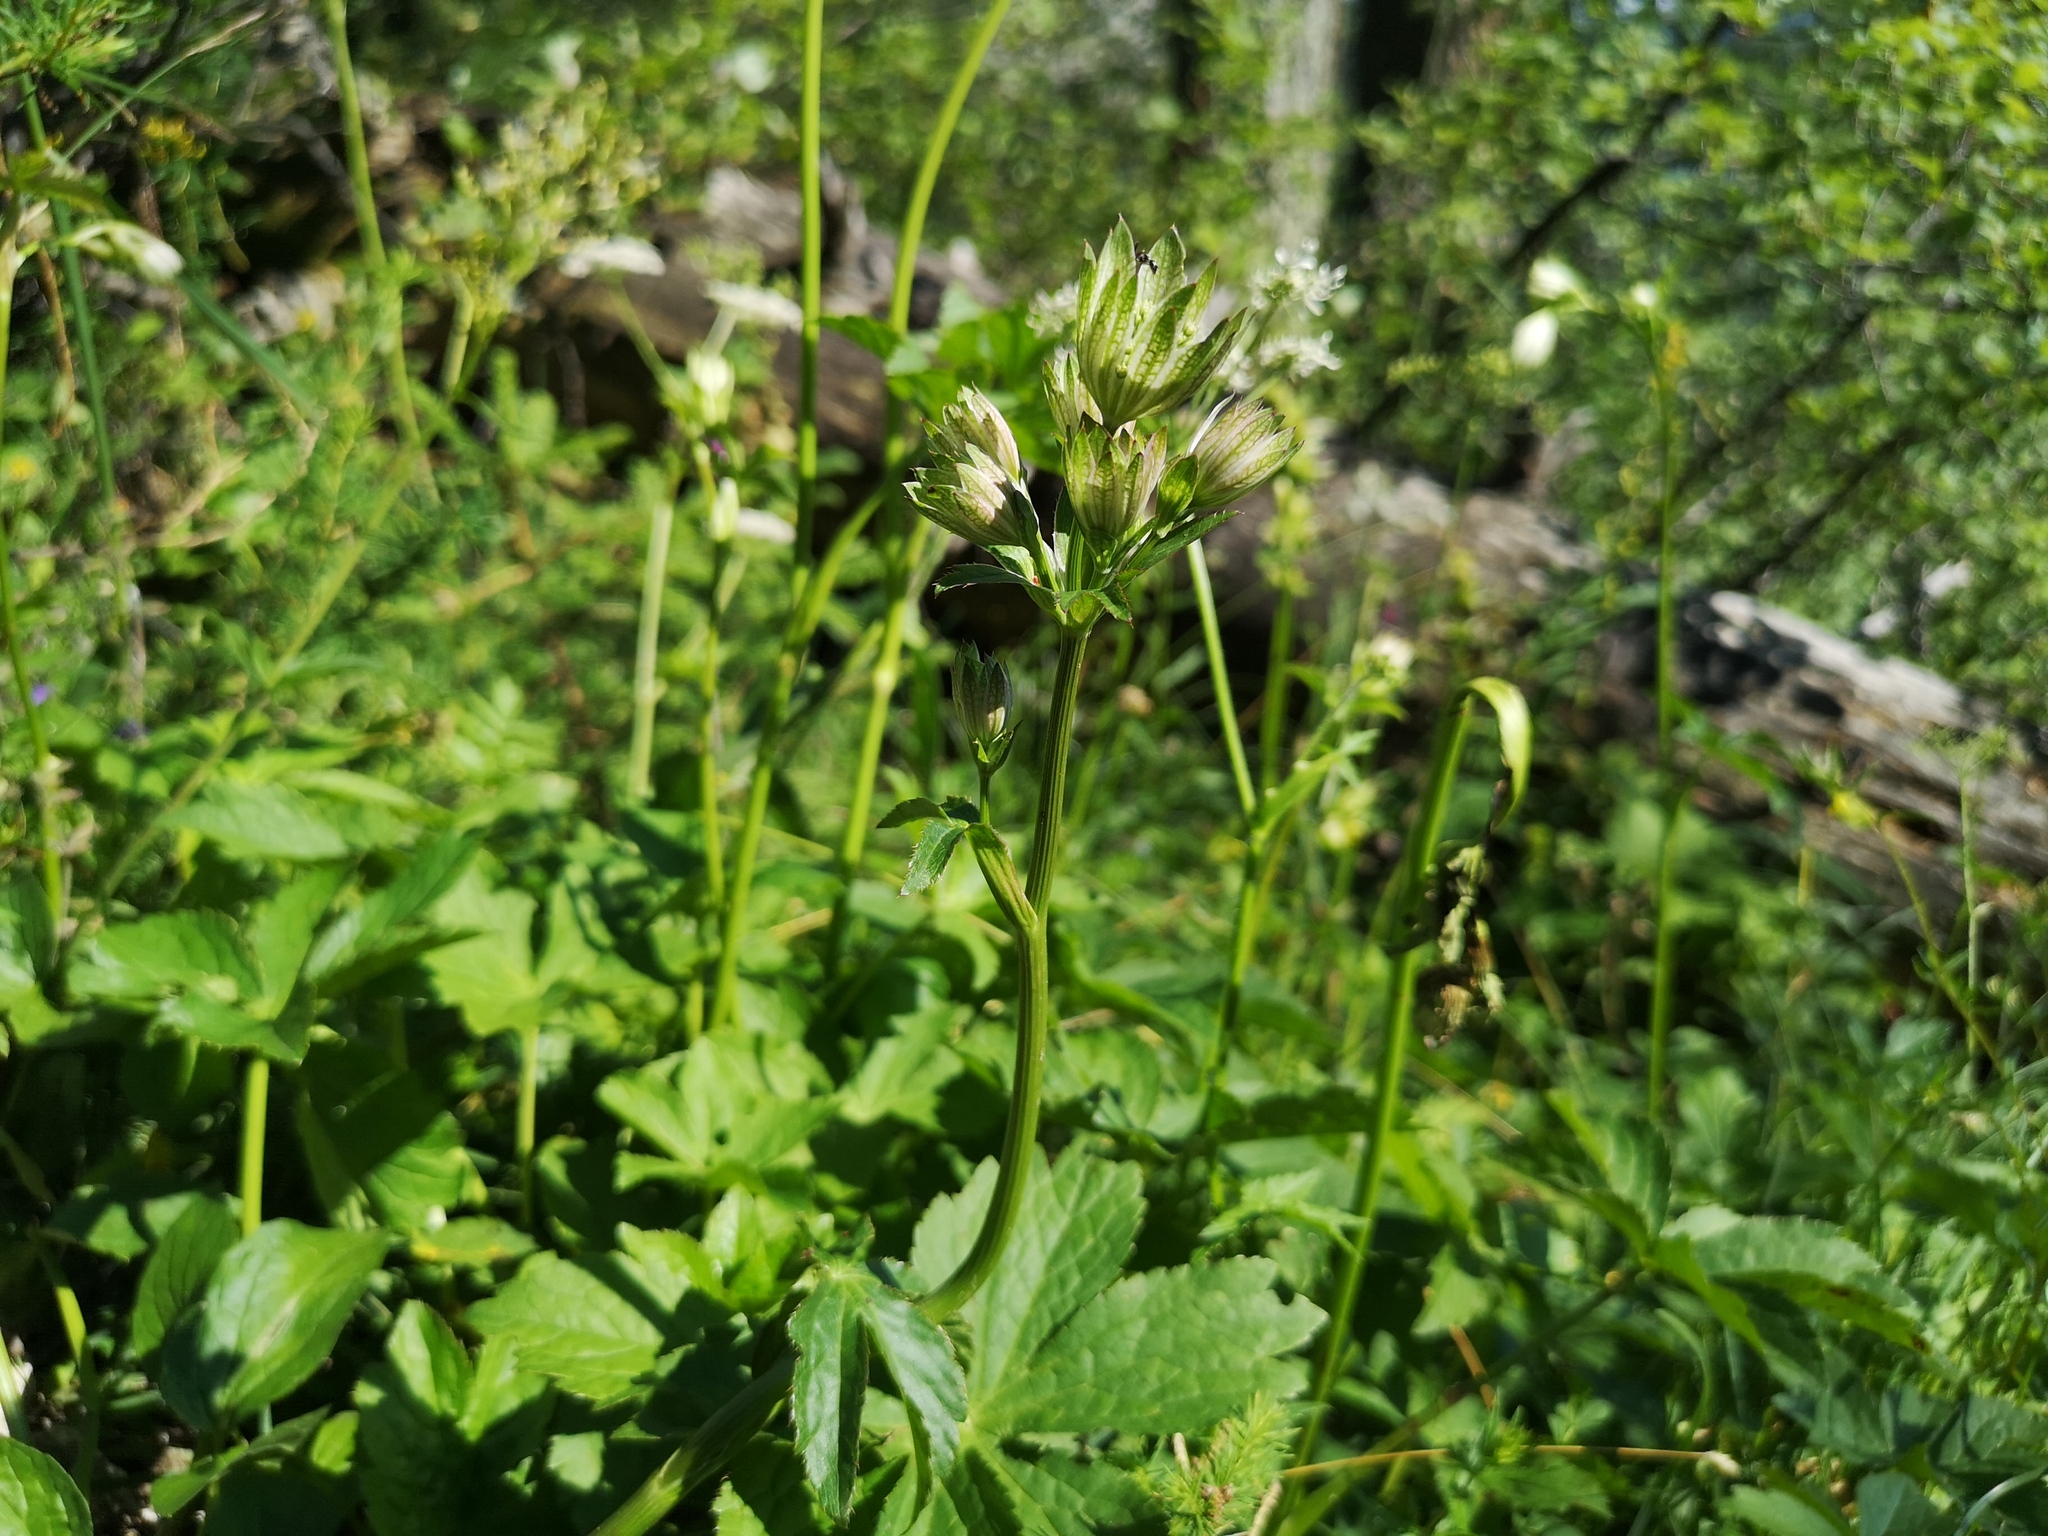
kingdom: Plantae
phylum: Tracheophyta
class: Magnoliopsida
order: Apiales
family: Apiaceae
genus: Astrantia
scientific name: Astrantia major
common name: Greater masterwort
